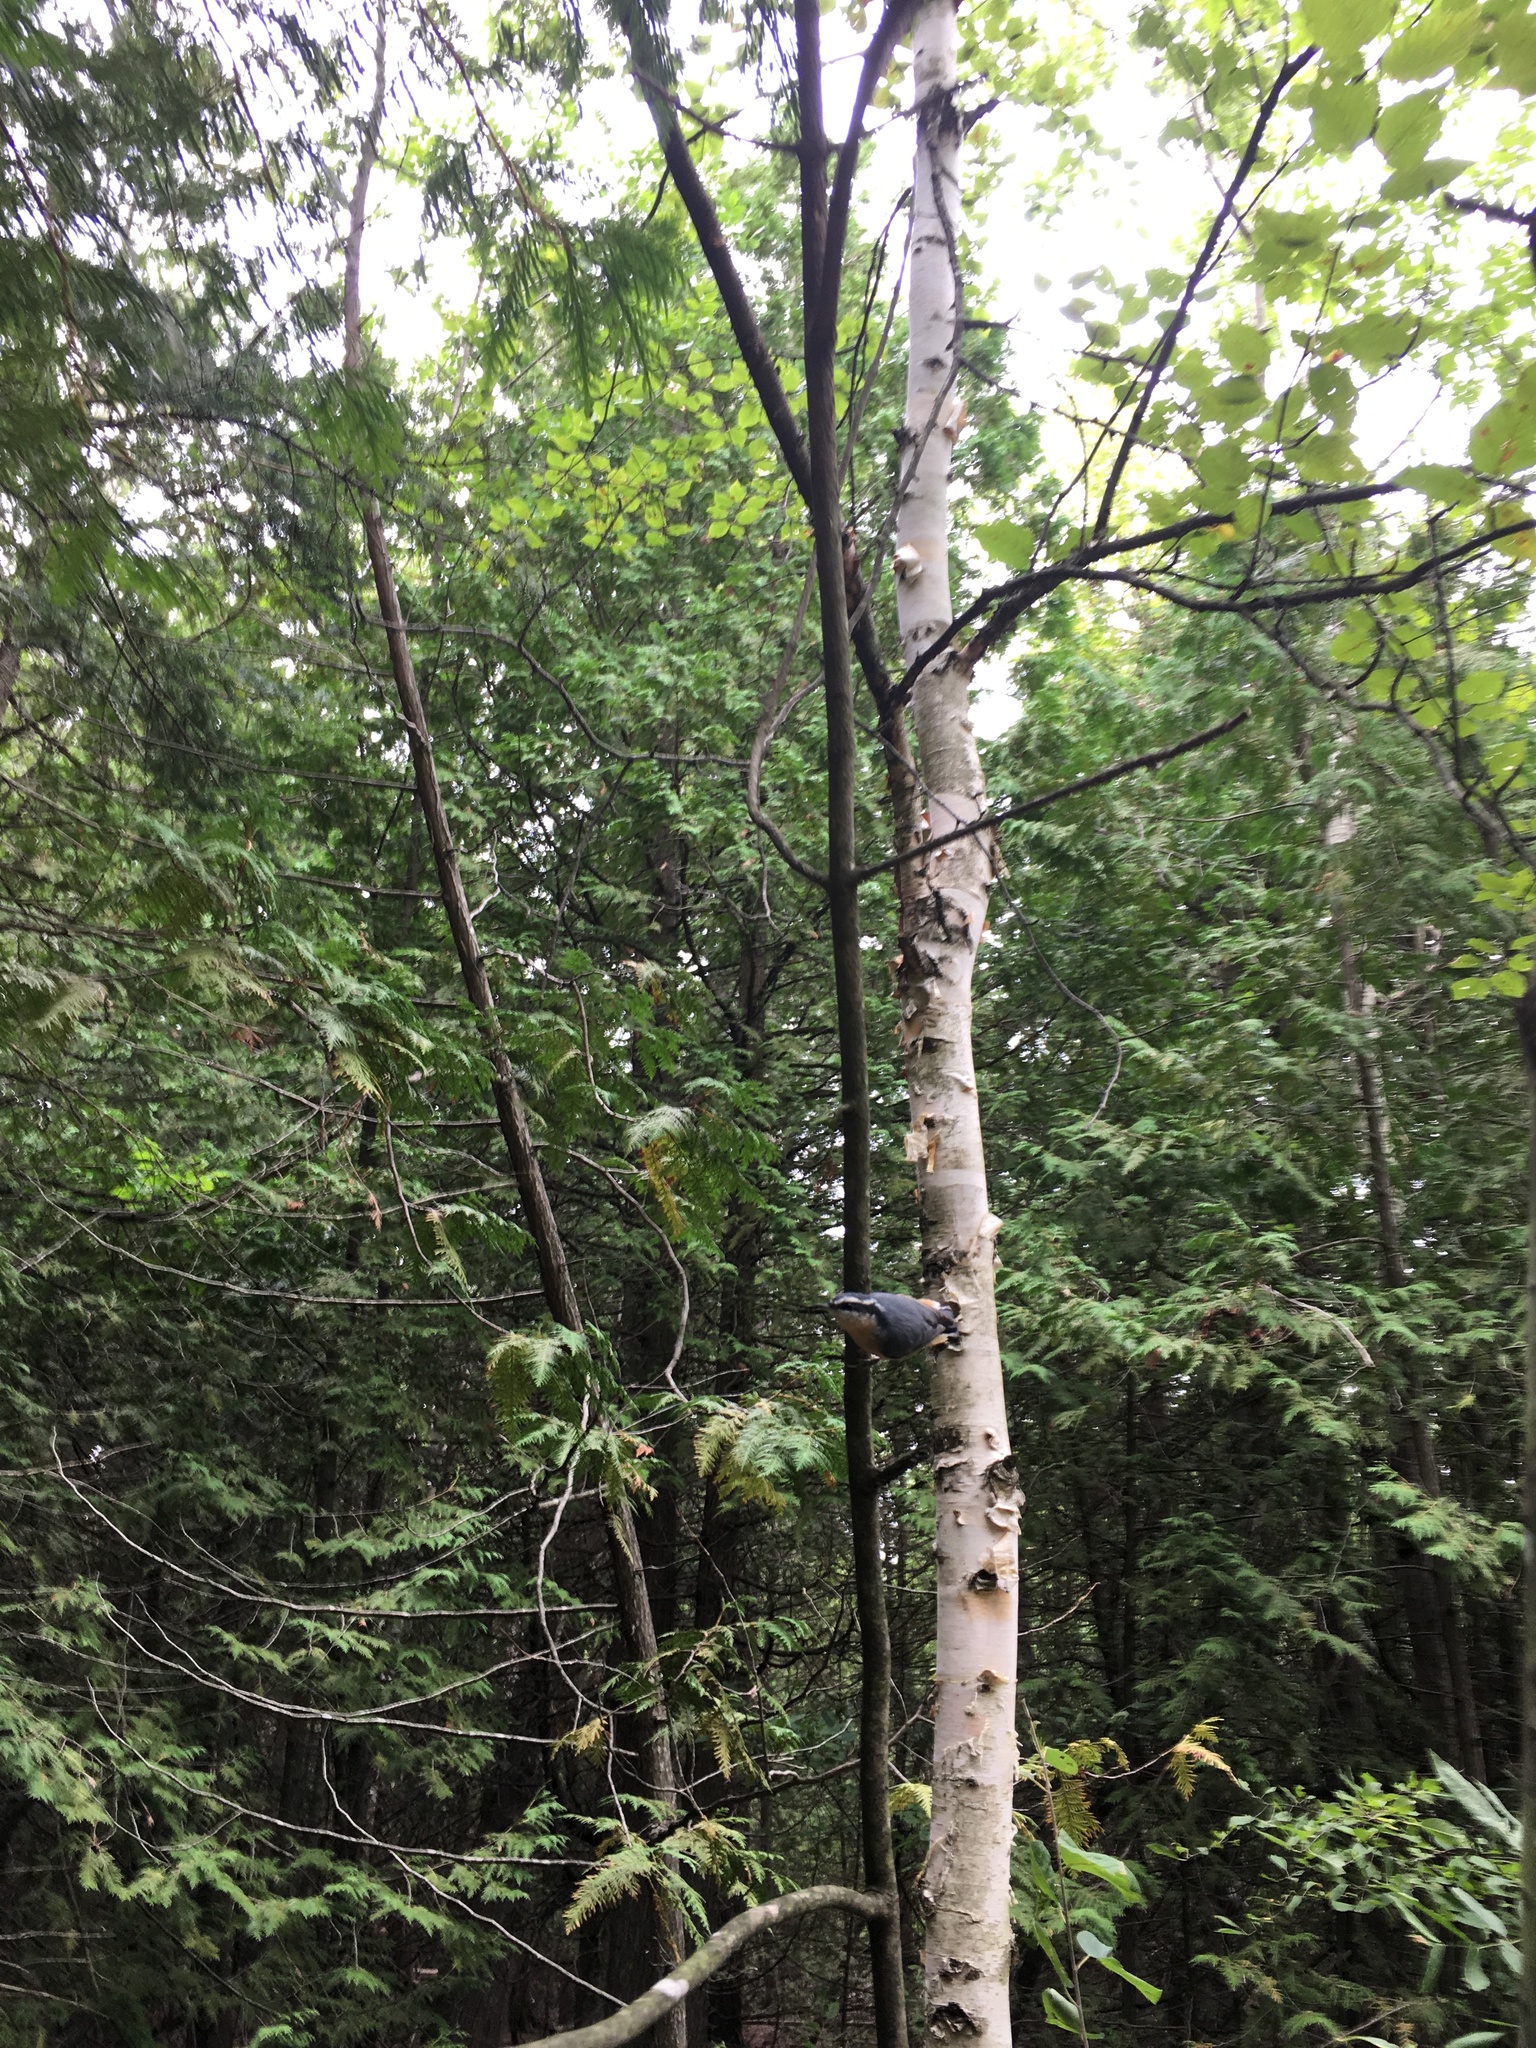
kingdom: Animalia
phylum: Chordata
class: Aves
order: Passeriformes
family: Sittidae
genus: Sitta
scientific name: Sitta canadensis
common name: Red-breasted nuthatch
